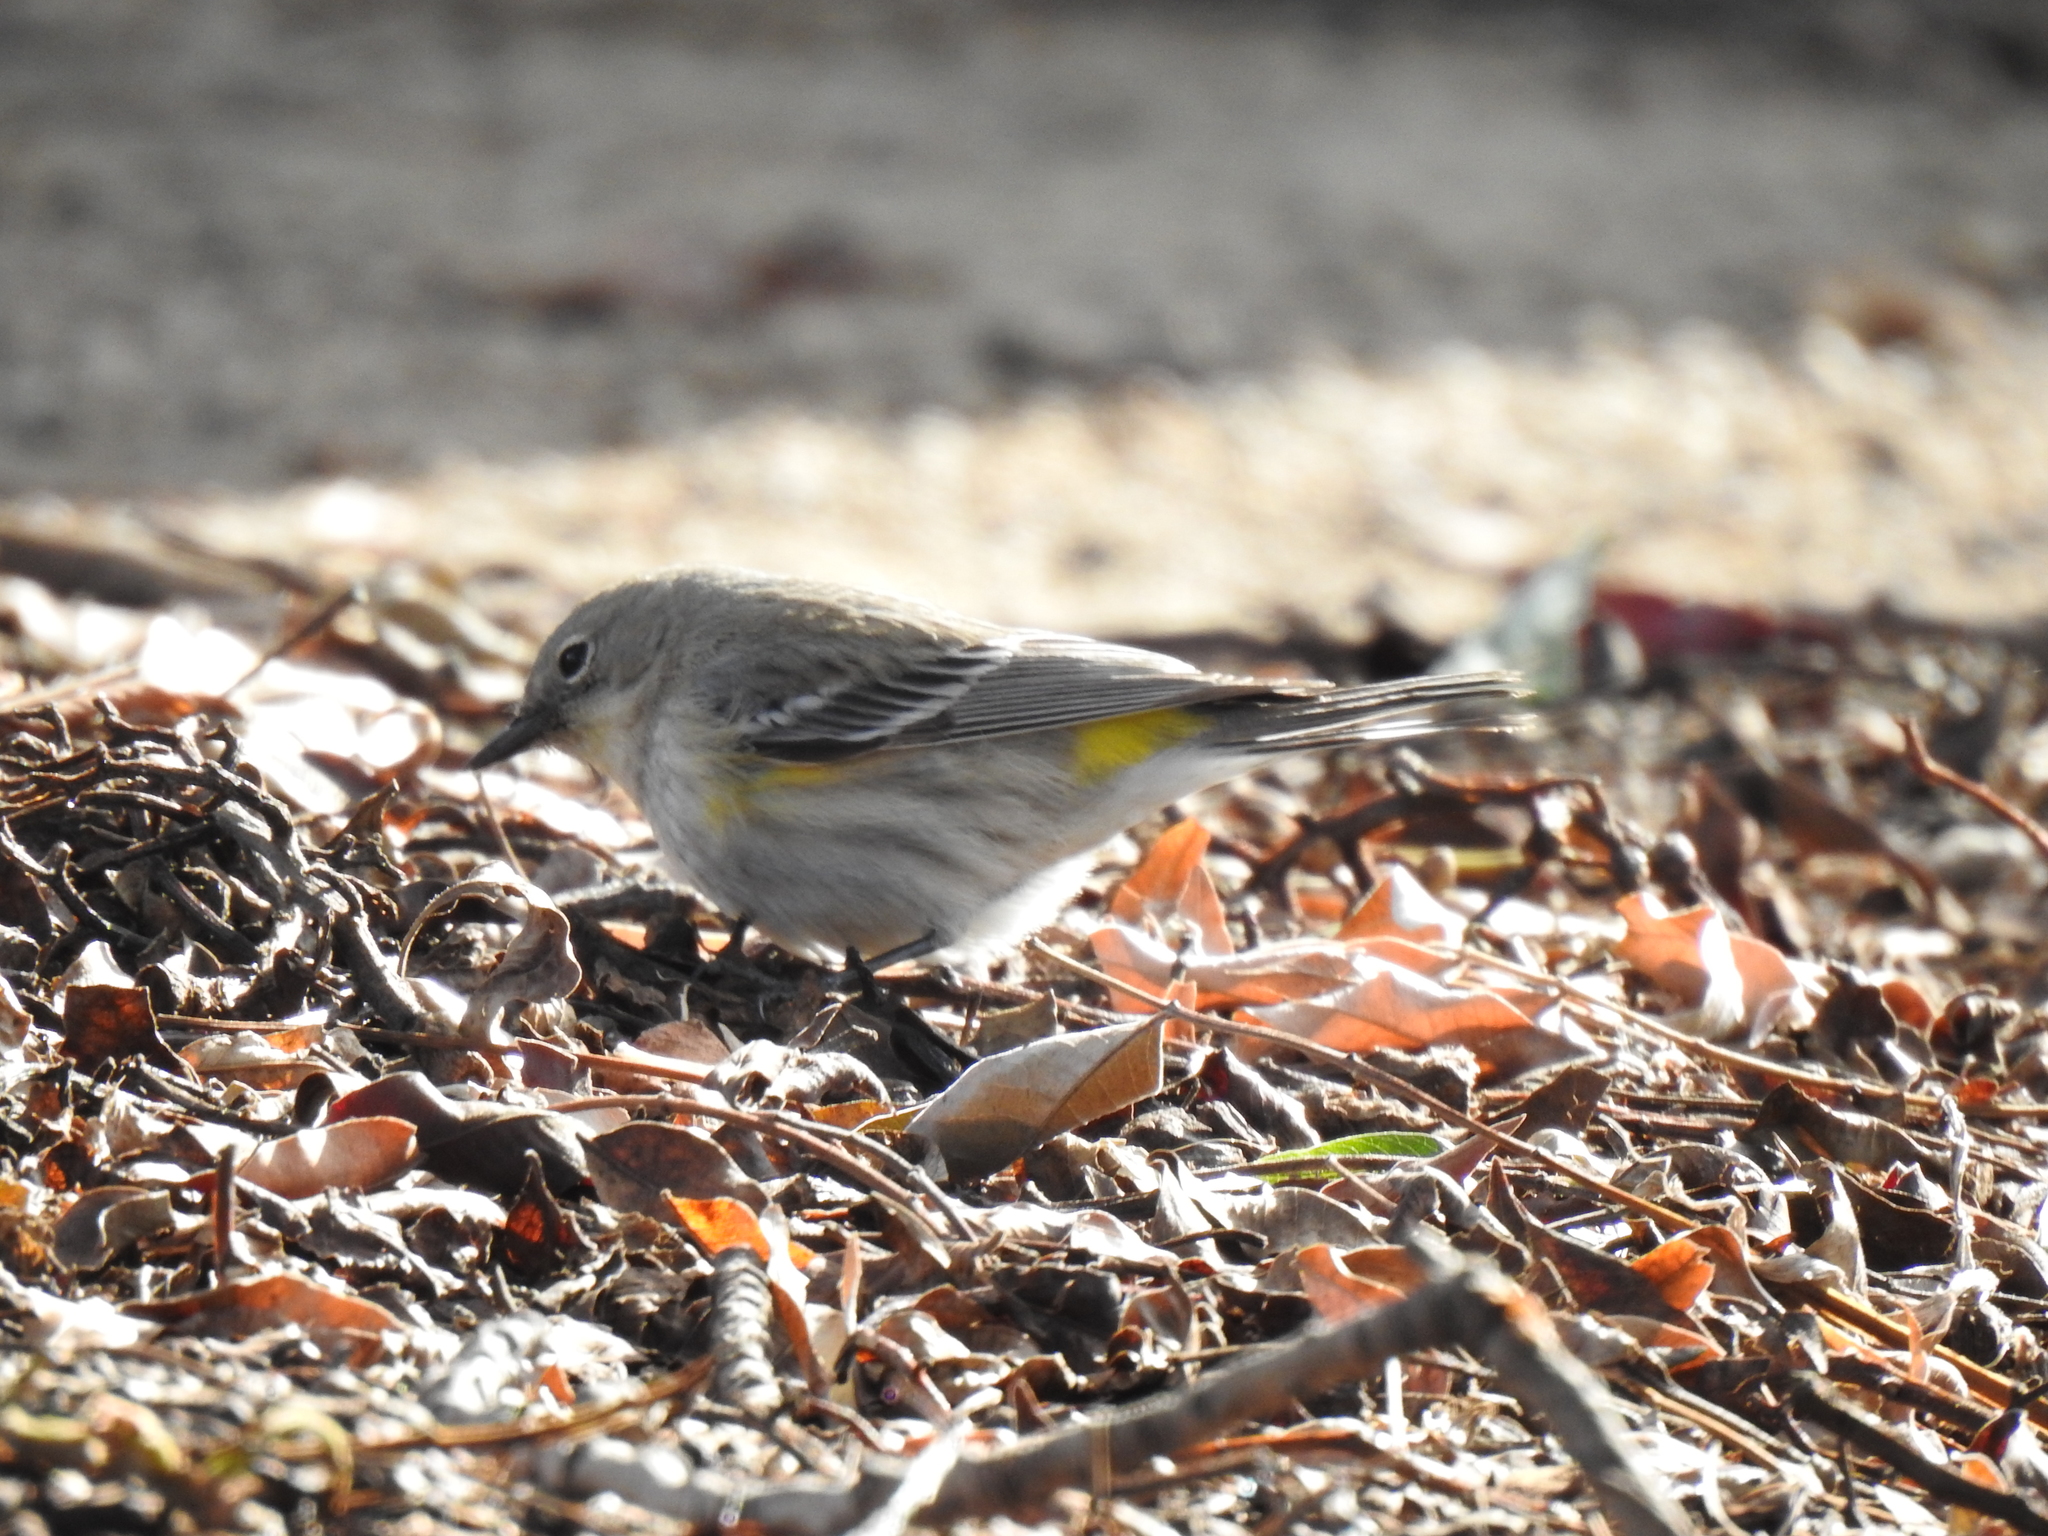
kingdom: Animalia
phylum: Chordata
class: Aves
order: Passeriformes
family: Parulidae
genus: Setophaga
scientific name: Setophaga coronata
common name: Myrtle warbler
